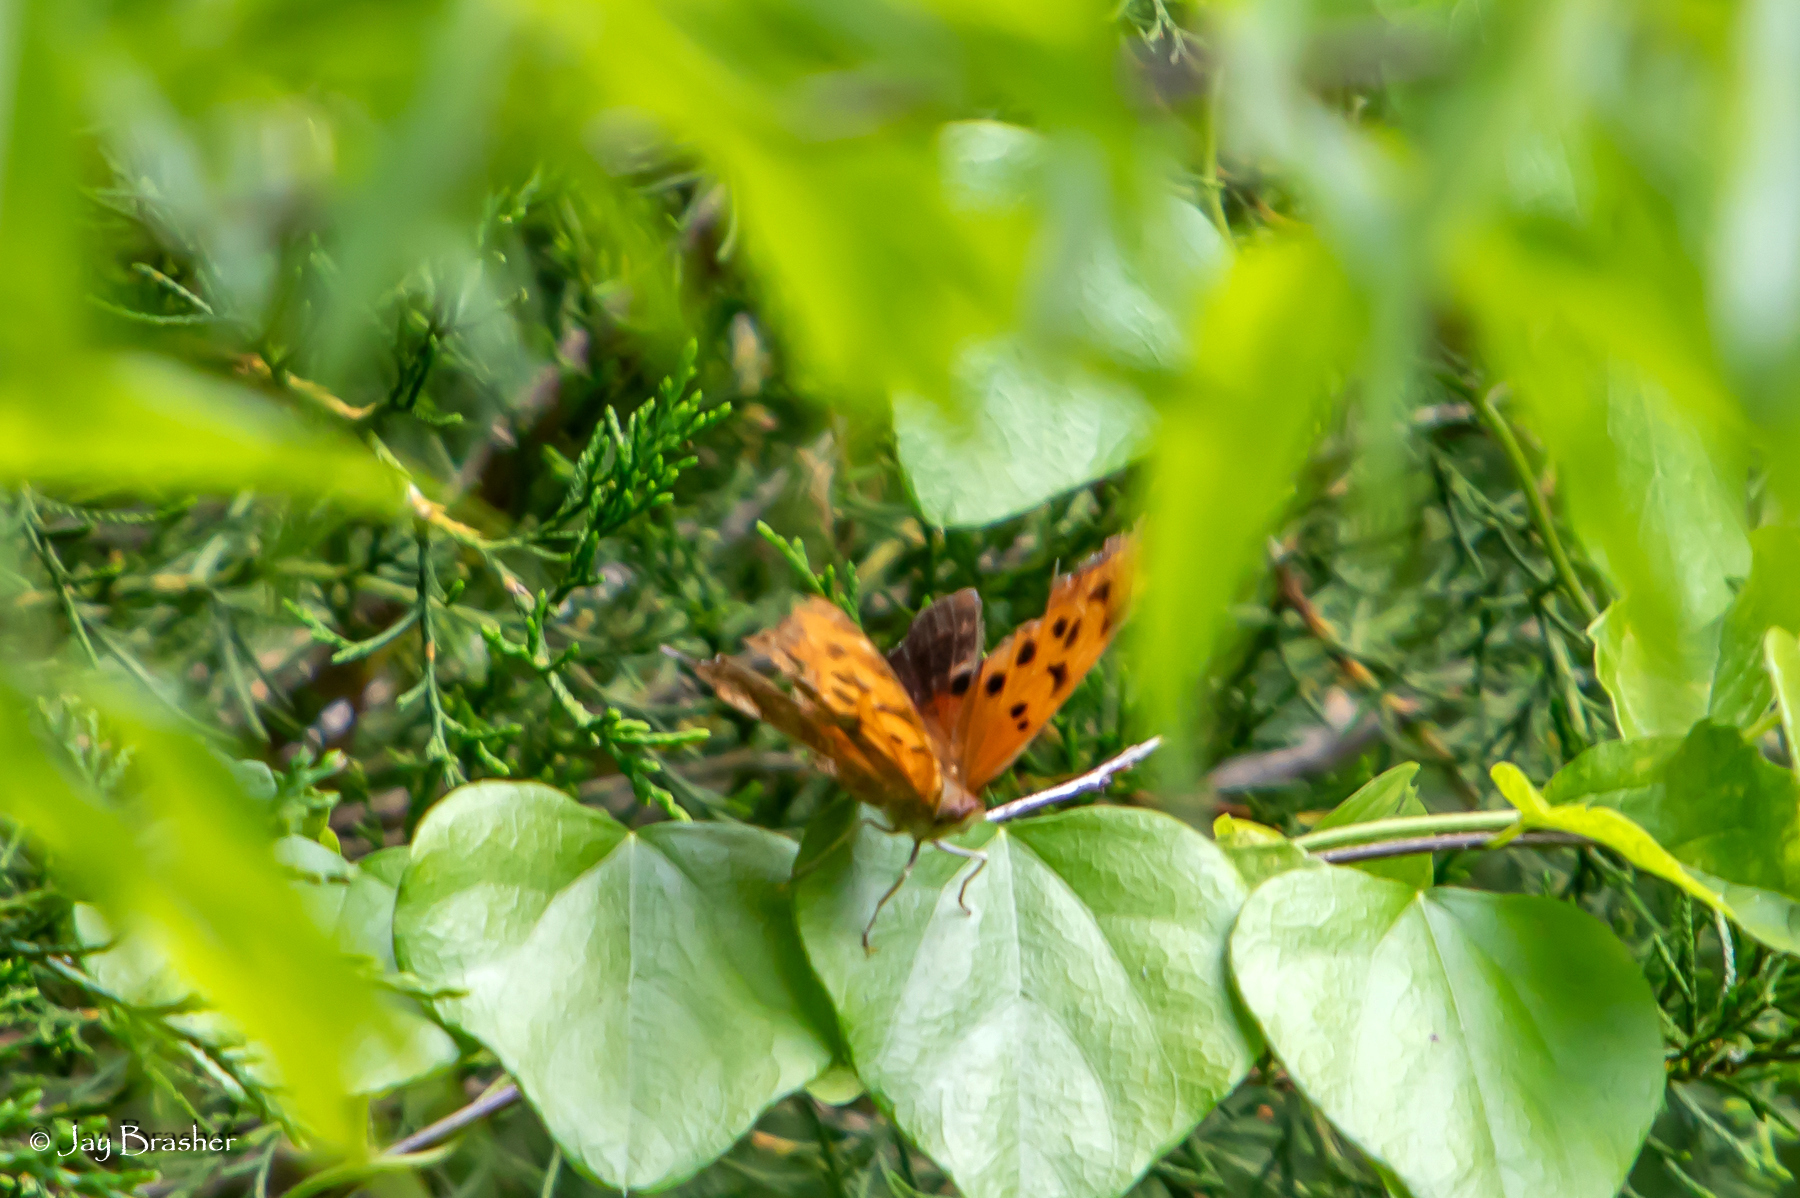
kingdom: Animalia
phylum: Arthropoda
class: Insecta
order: Lepidoptera
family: Nymphalidae
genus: Polygonia
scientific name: Polygonia interrogationis
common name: Question mark
